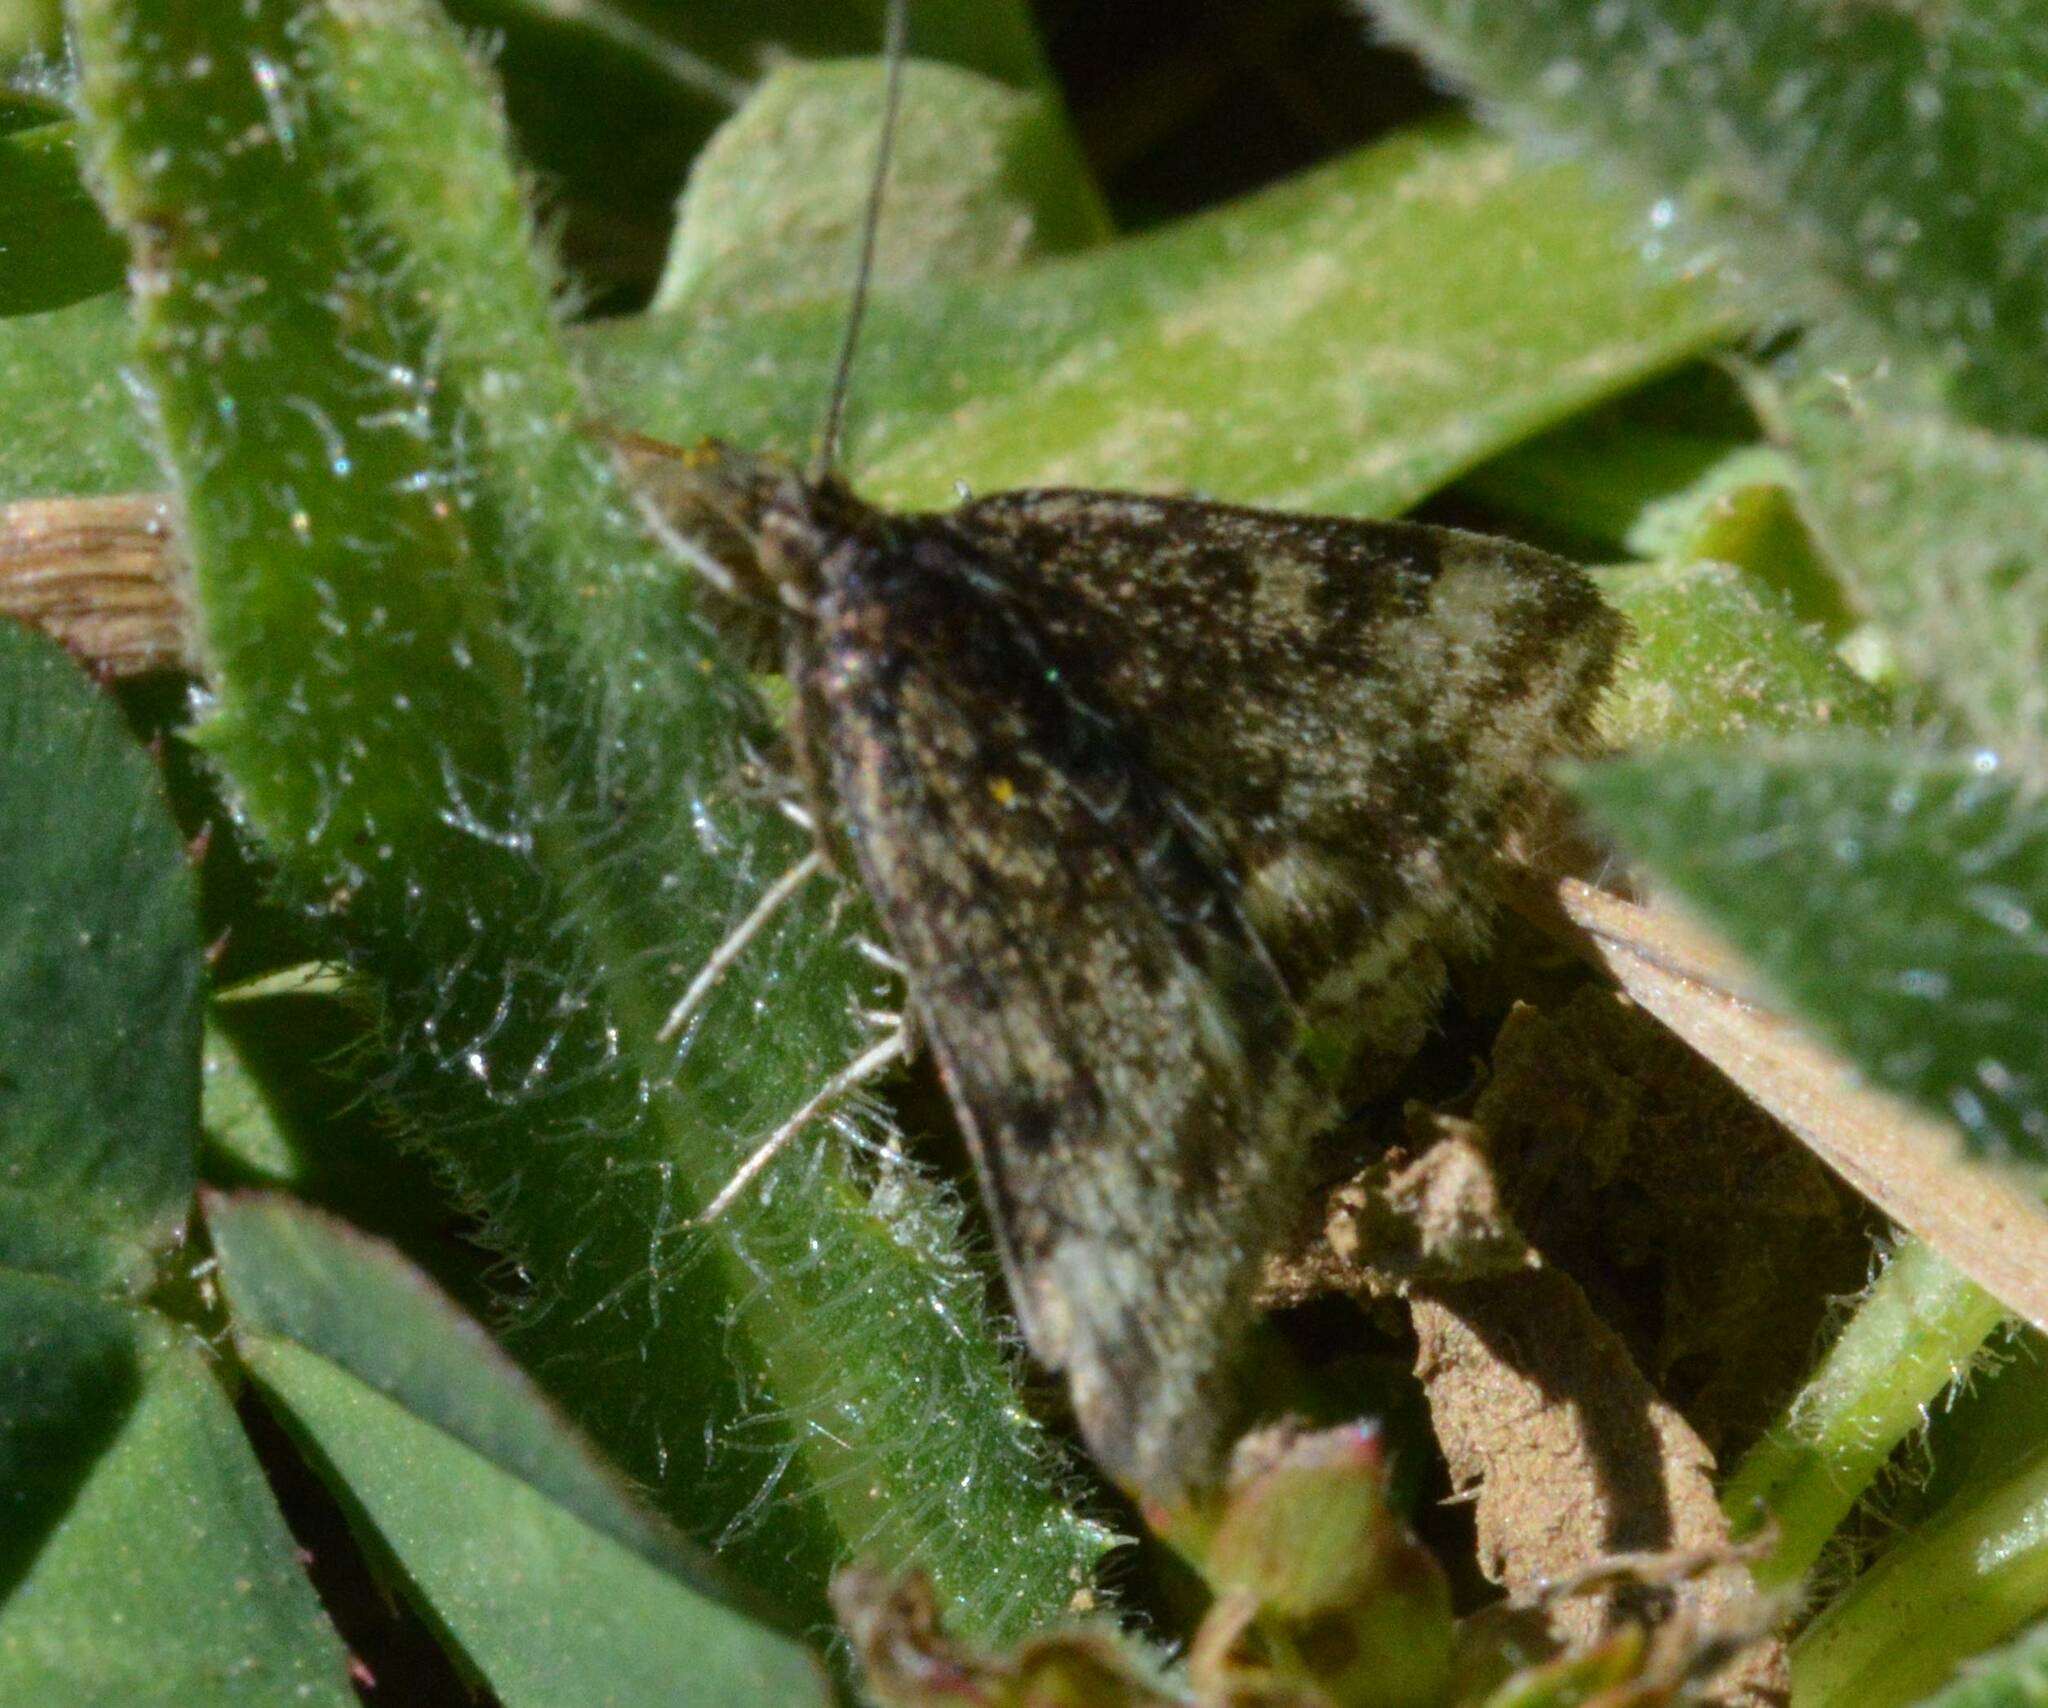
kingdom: Animalia
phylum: Arthropoda
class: Insecta
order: Lepidoptera
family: Crambidae
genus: Pyrausta
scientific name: Pyrausta despicata
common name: Straw-barred pearl
